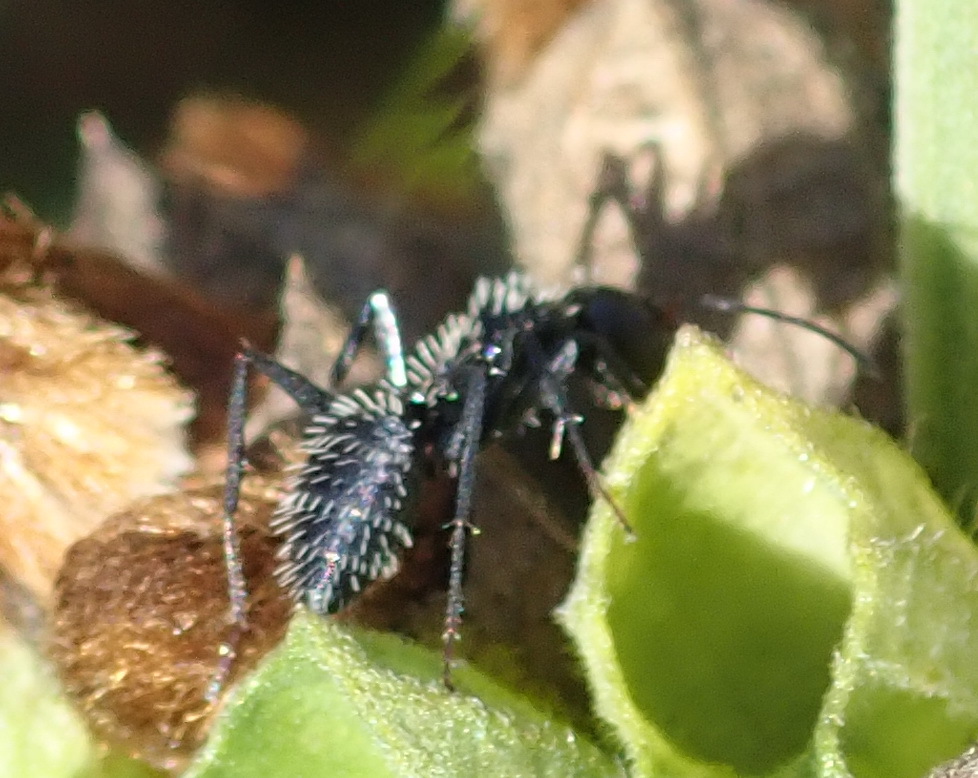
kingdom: Animalia
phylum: Arthropoda
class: Insecta
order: Hymenoptera
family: Formicidae
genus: Camponotus
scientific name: Camponotus niveosetosus
